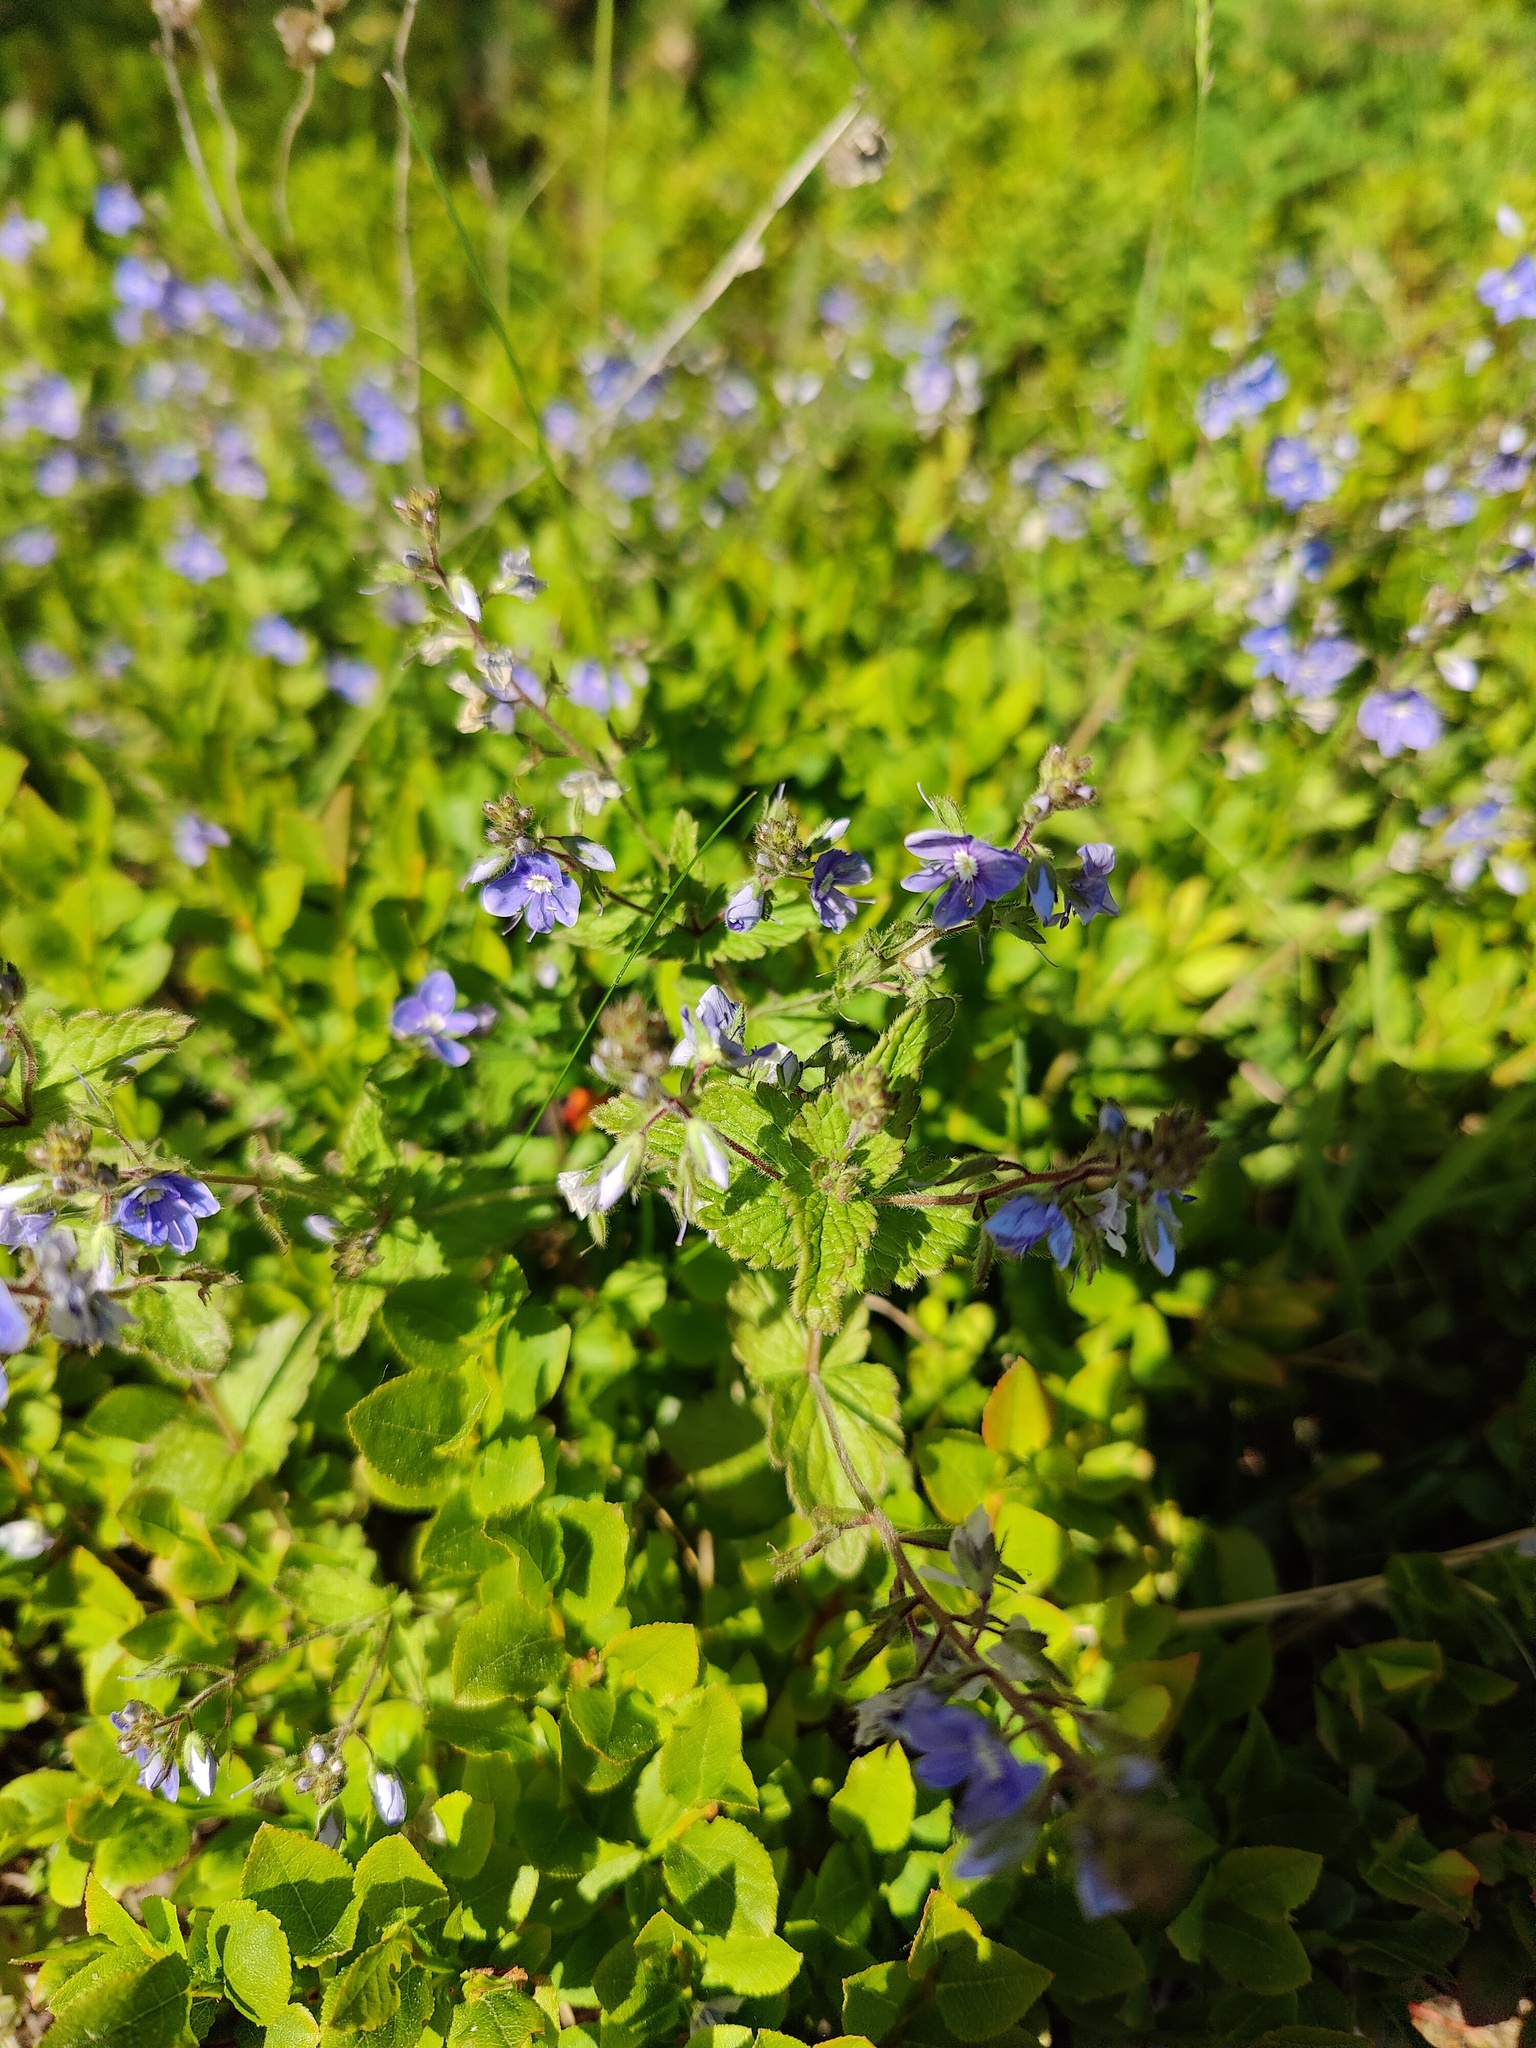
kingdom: Plantae
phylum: Tracheophyta
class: Magnoliopsida
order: Lamiales
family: Plantaginaceae
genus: Veronica
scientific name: Veronica chamaedrys
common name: Germander speedwell
